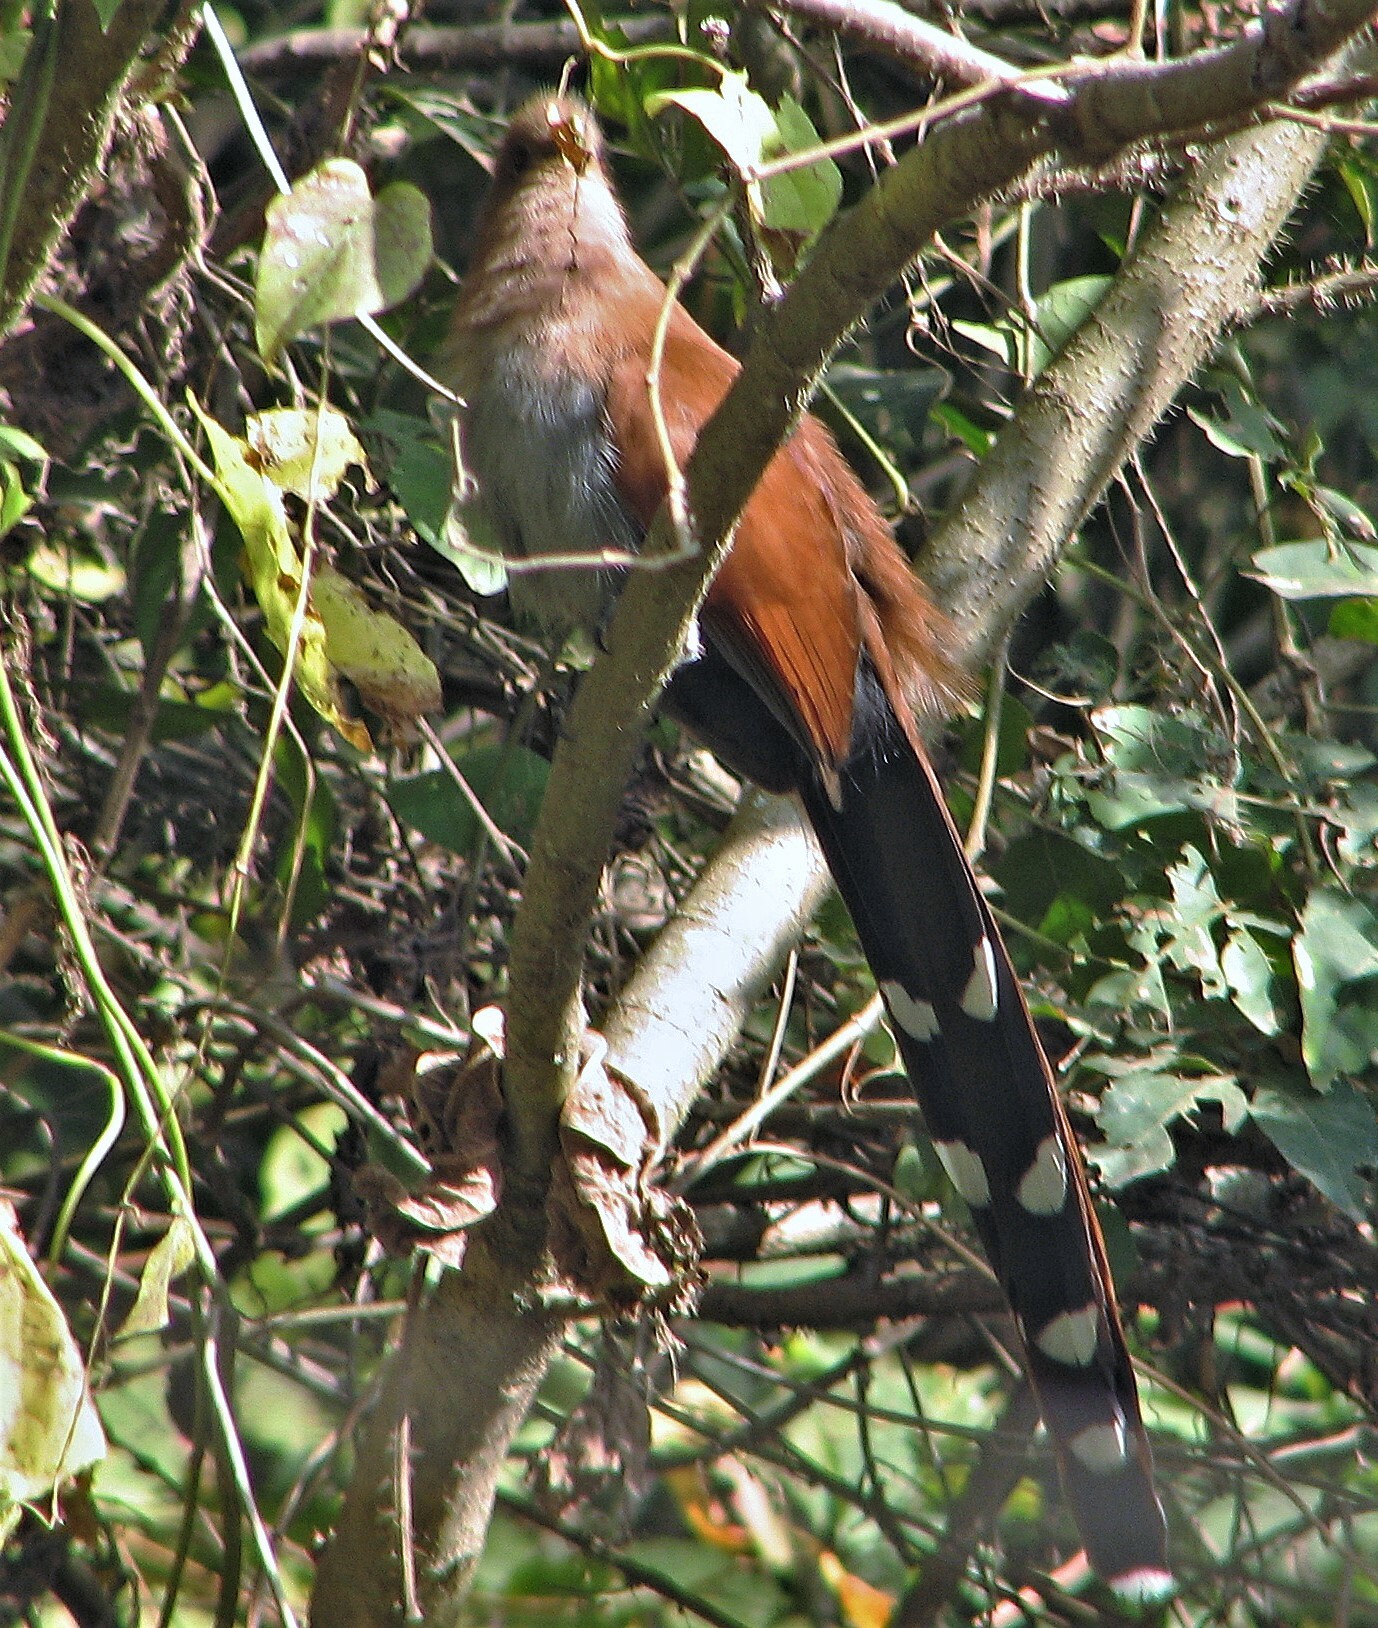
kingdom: Animalia
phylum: Chordata
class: Aves
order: Cuculiformes
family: Cuculidae
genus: Piaya
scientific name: Piaya cayana
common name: Squirrel cuckoo
